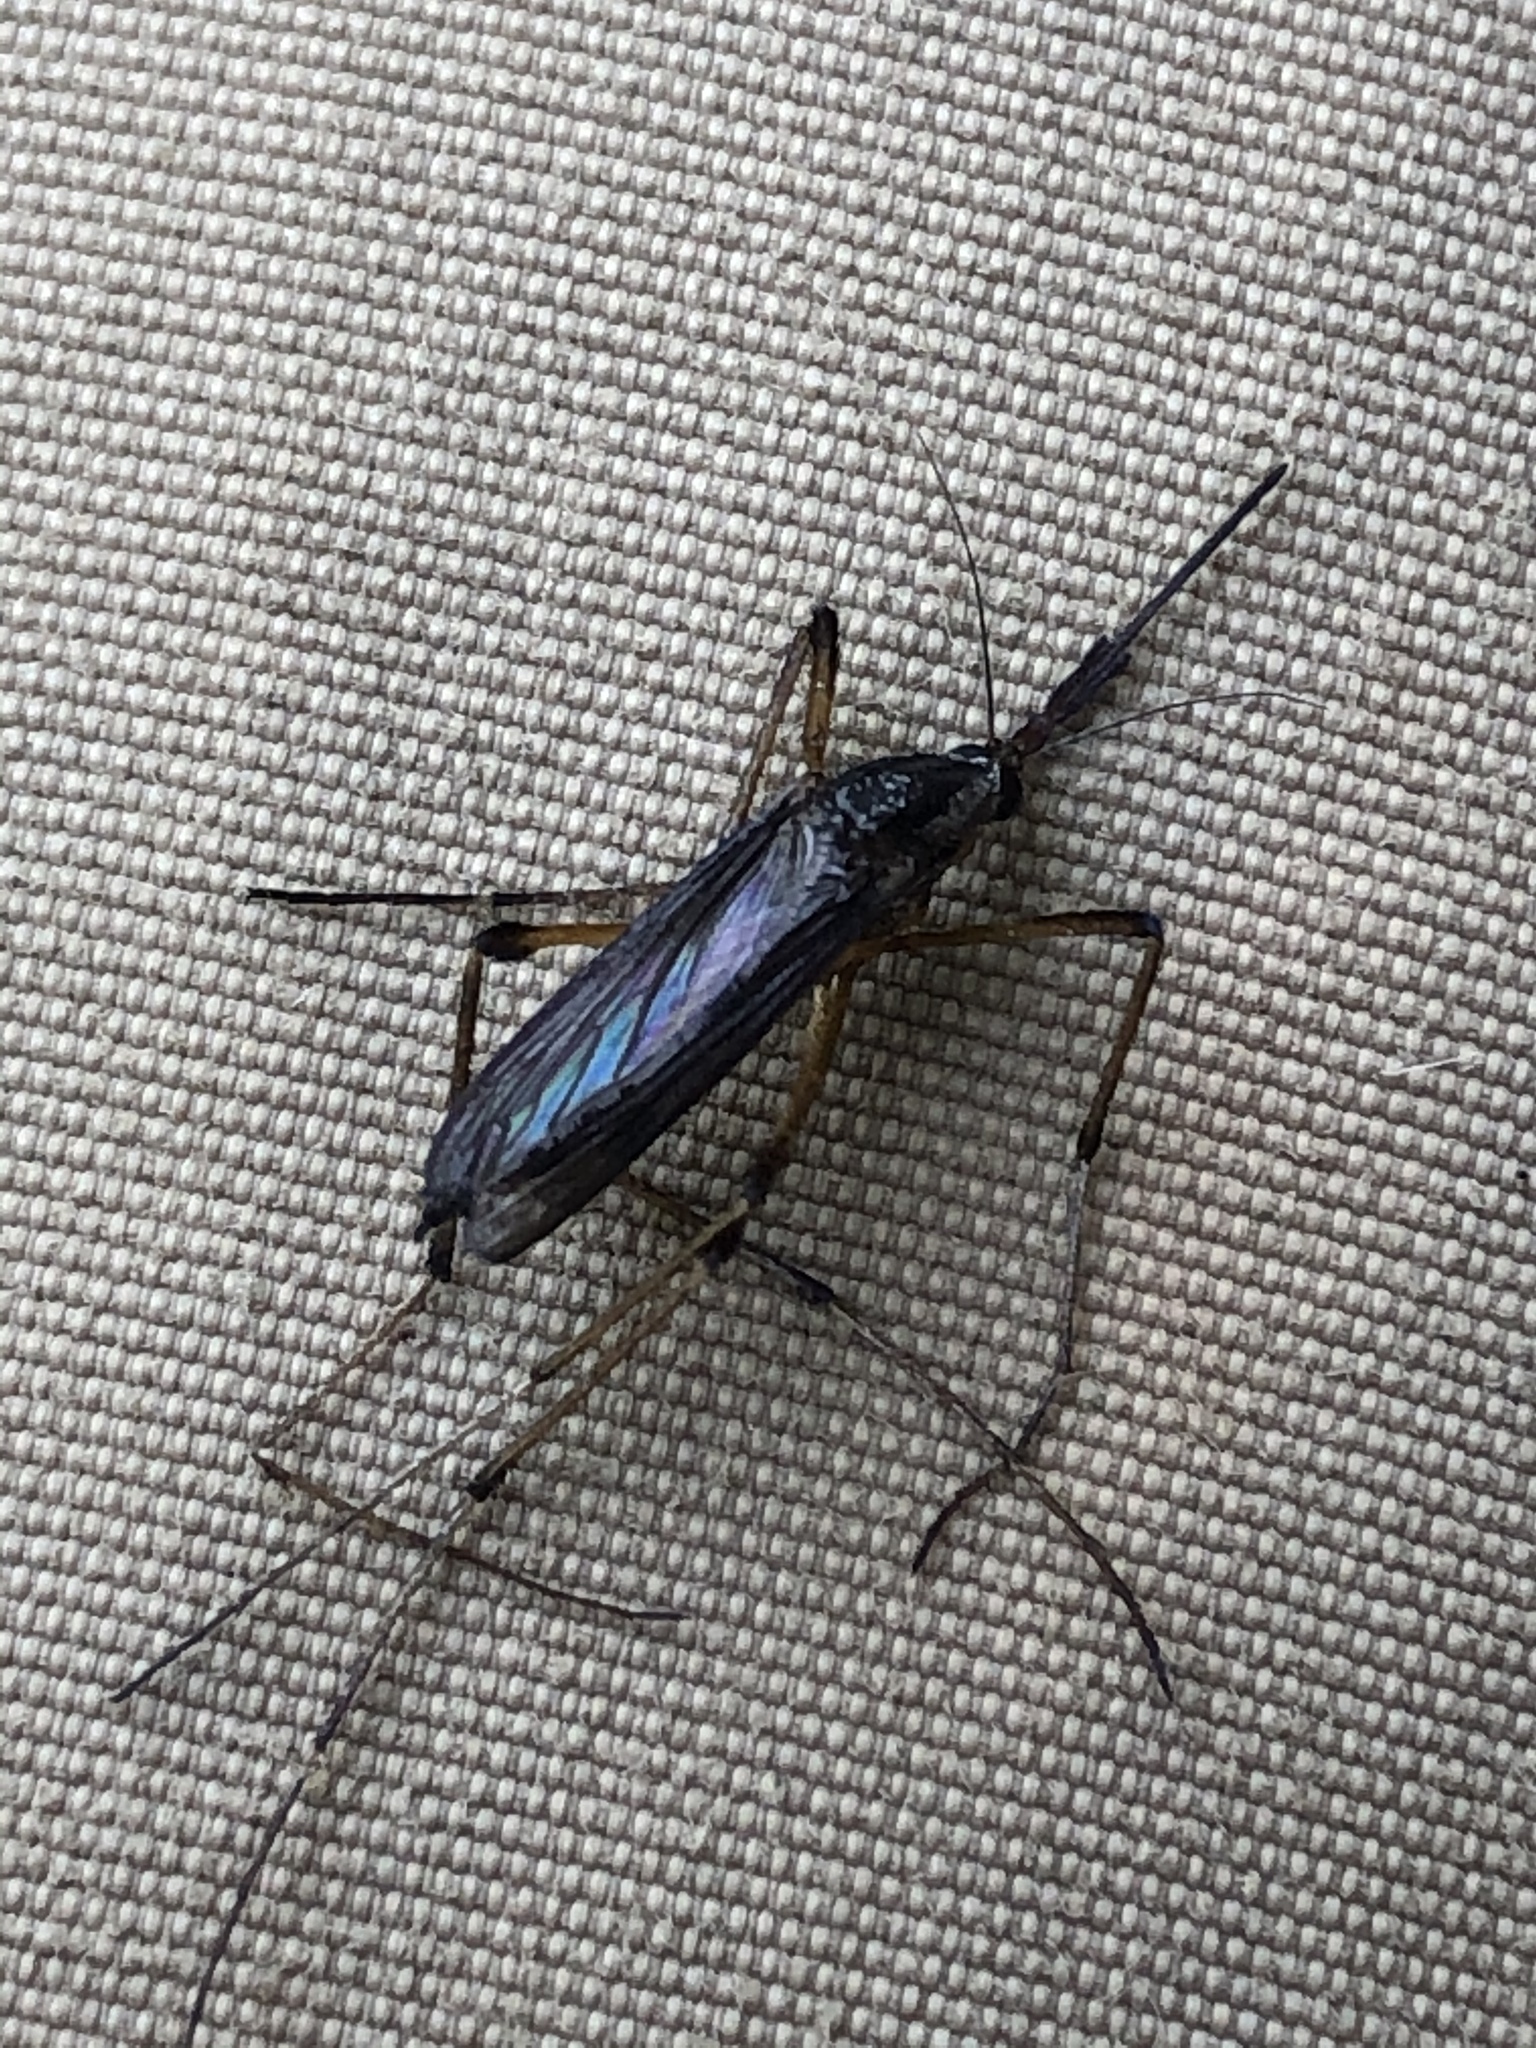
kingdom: Animalia
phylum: Arthropoda
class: Insecta
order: Diptera
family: Culicidae
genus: Psorophora
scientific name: Psorophora howardii
